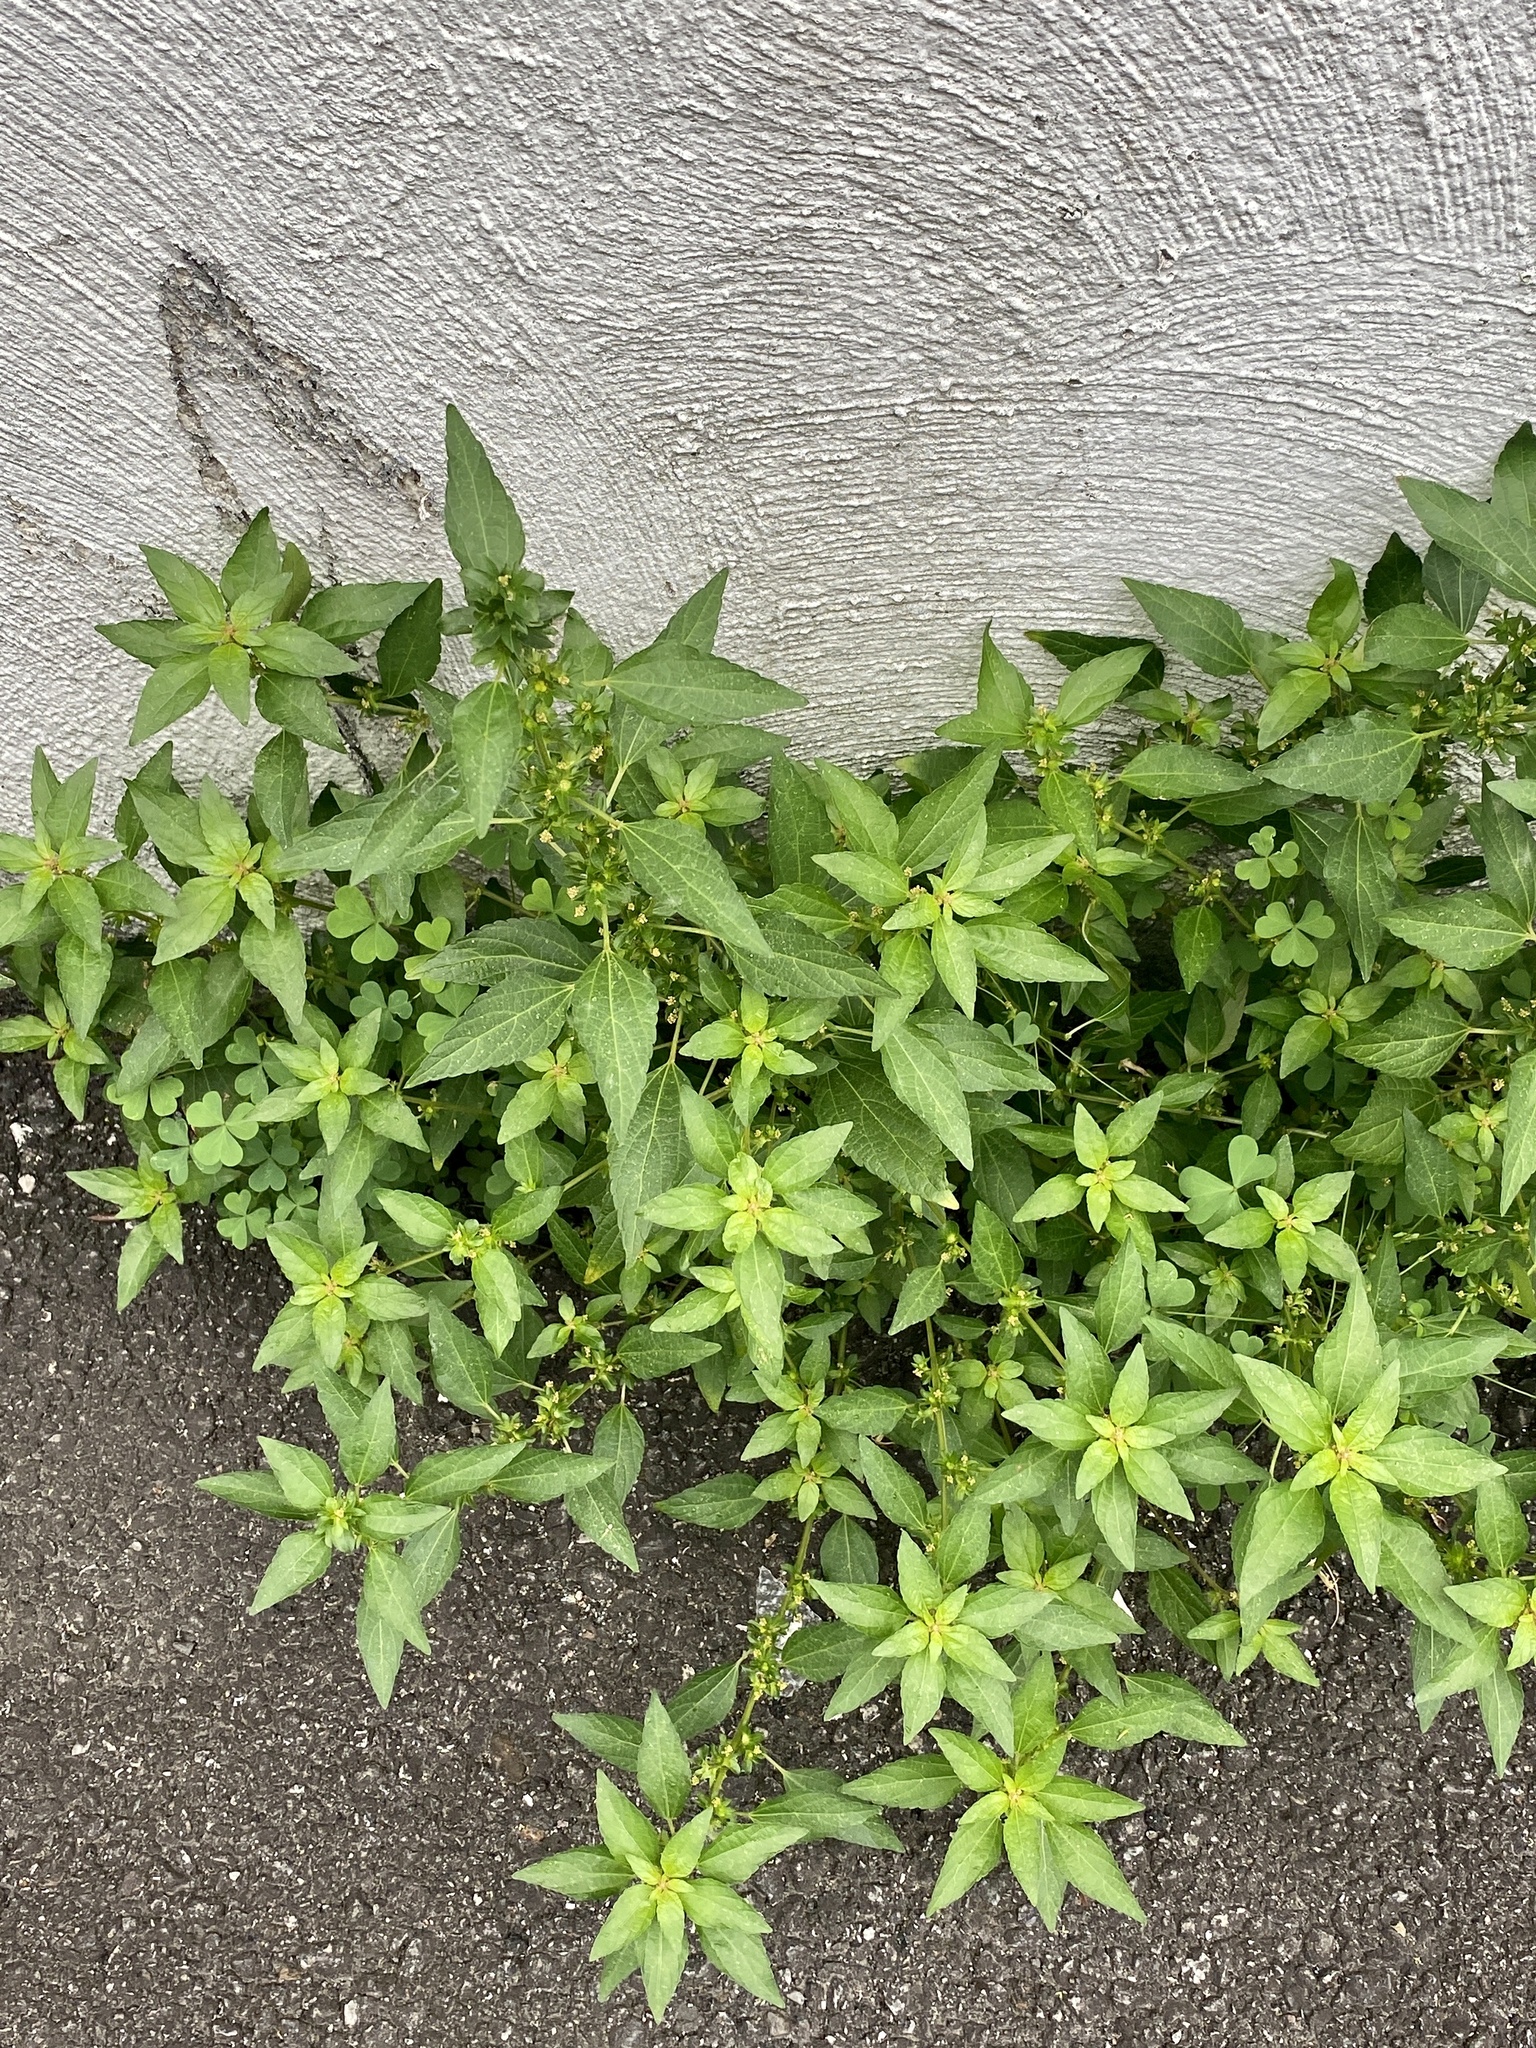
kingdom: Plantae
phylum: Tracheophyta
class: Magnoliopsida
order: Saxifragales
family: Altingiaceae
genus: Liquidambar
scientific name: Liquidambar styraciflua
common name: Sweet gum
